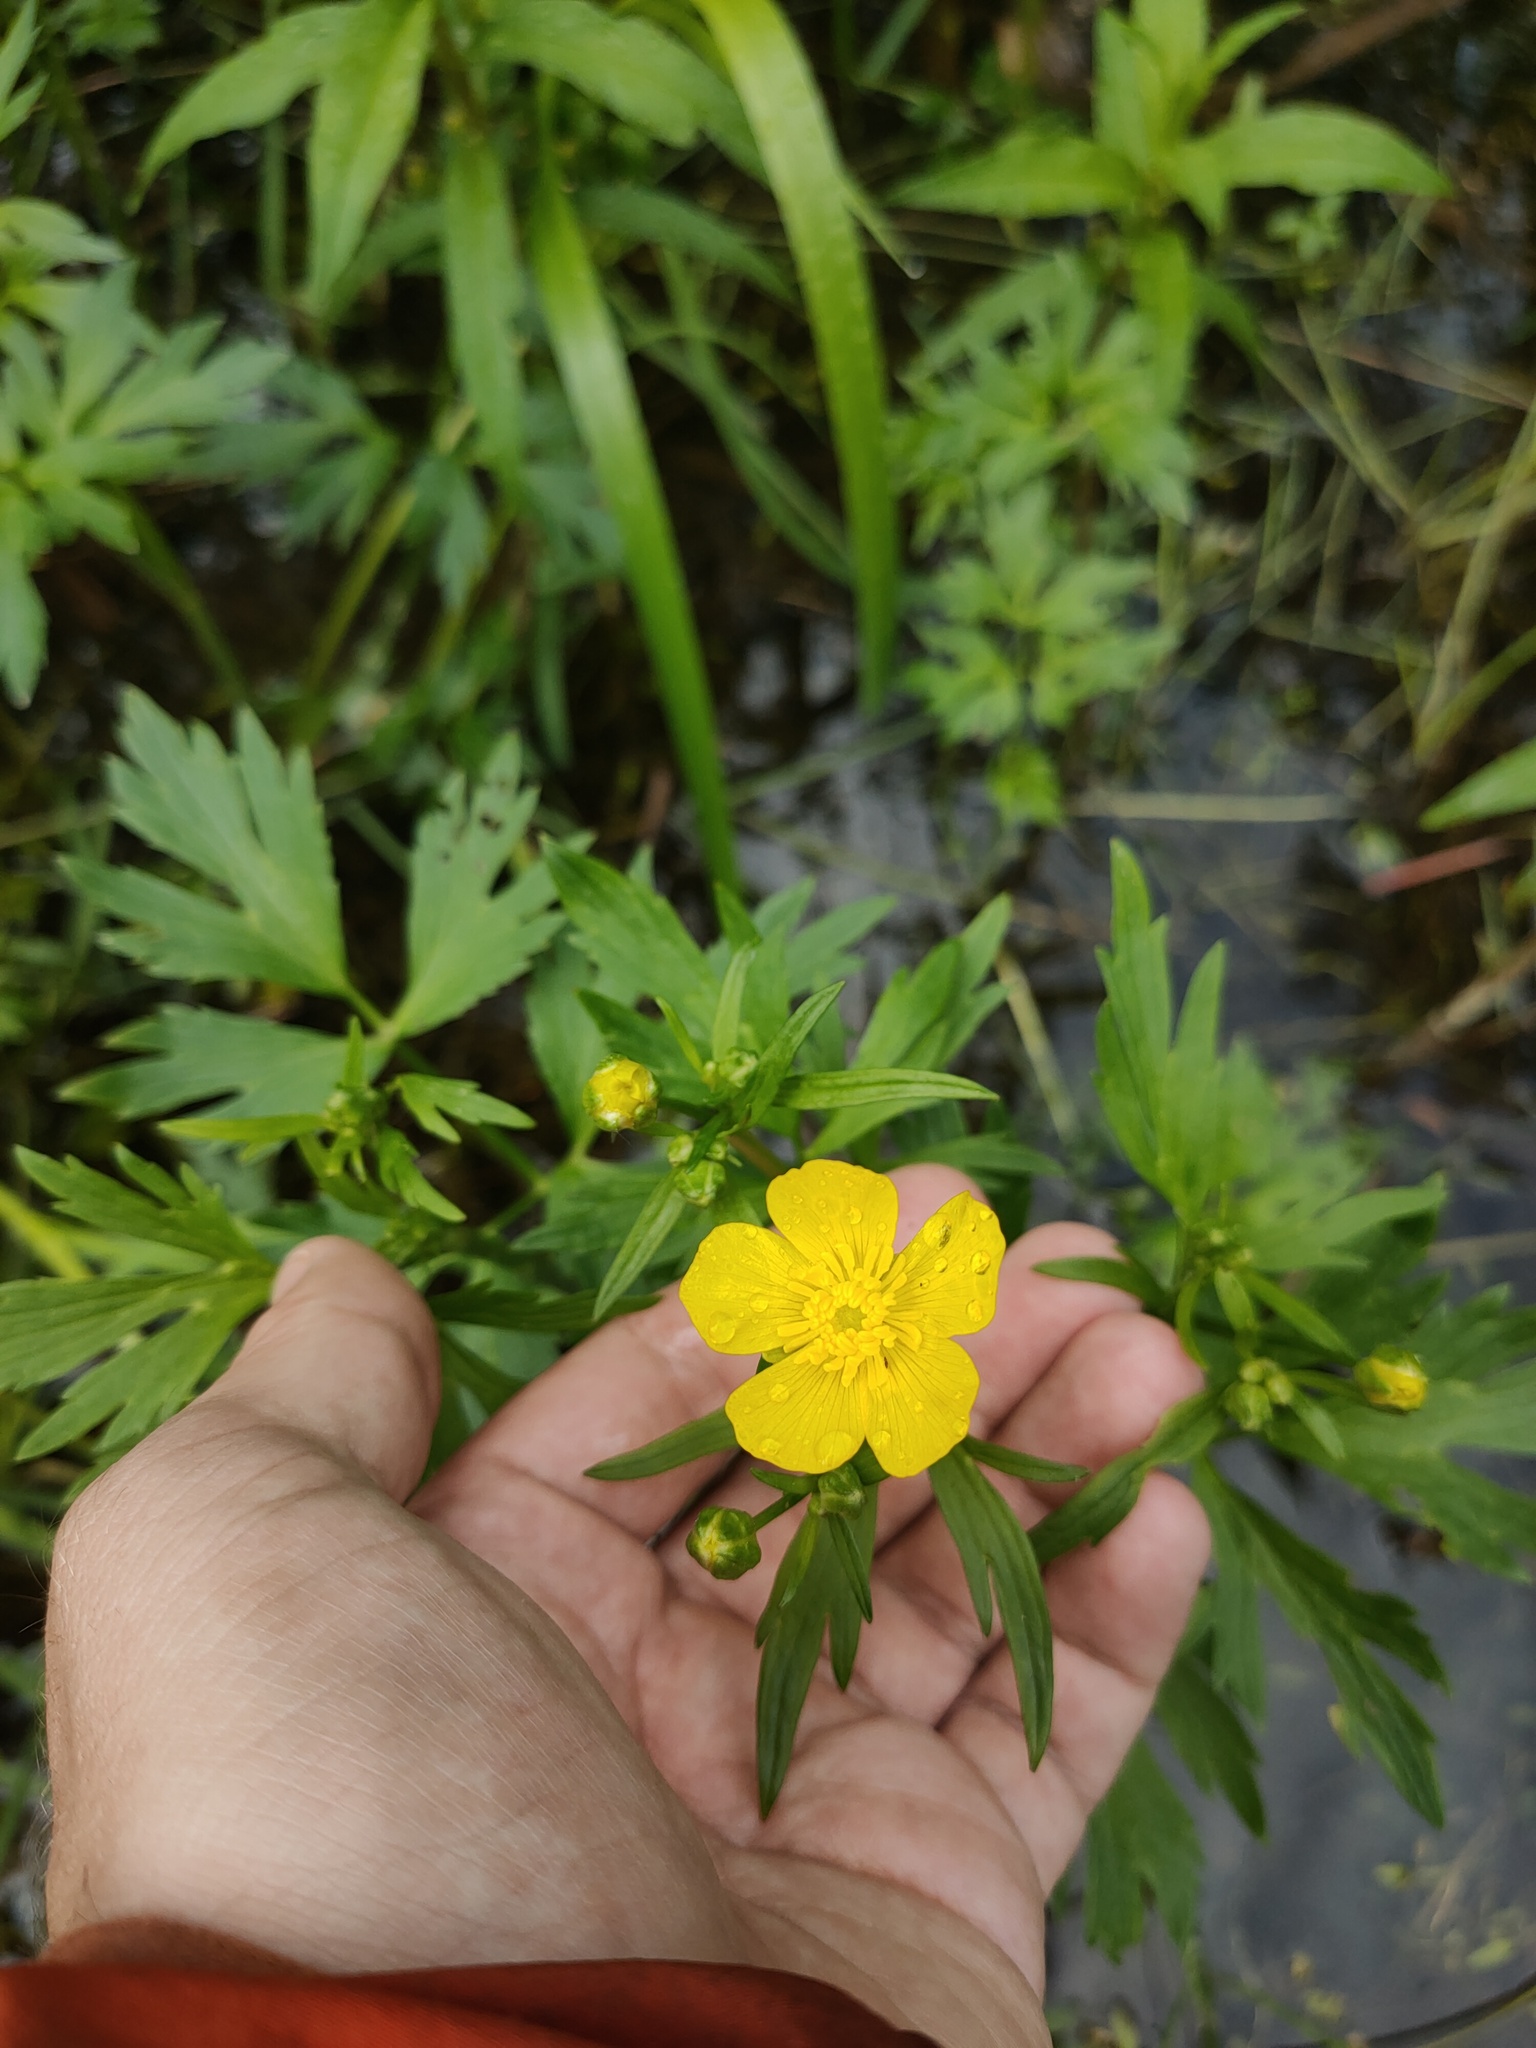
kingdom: Plantae
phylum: Tracheophyta
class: Magnoliopsida
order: Ranunculales
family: Ranunculaceae
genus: Ranunculus
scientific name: Ranunculus repens
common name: Creeping buttercup
